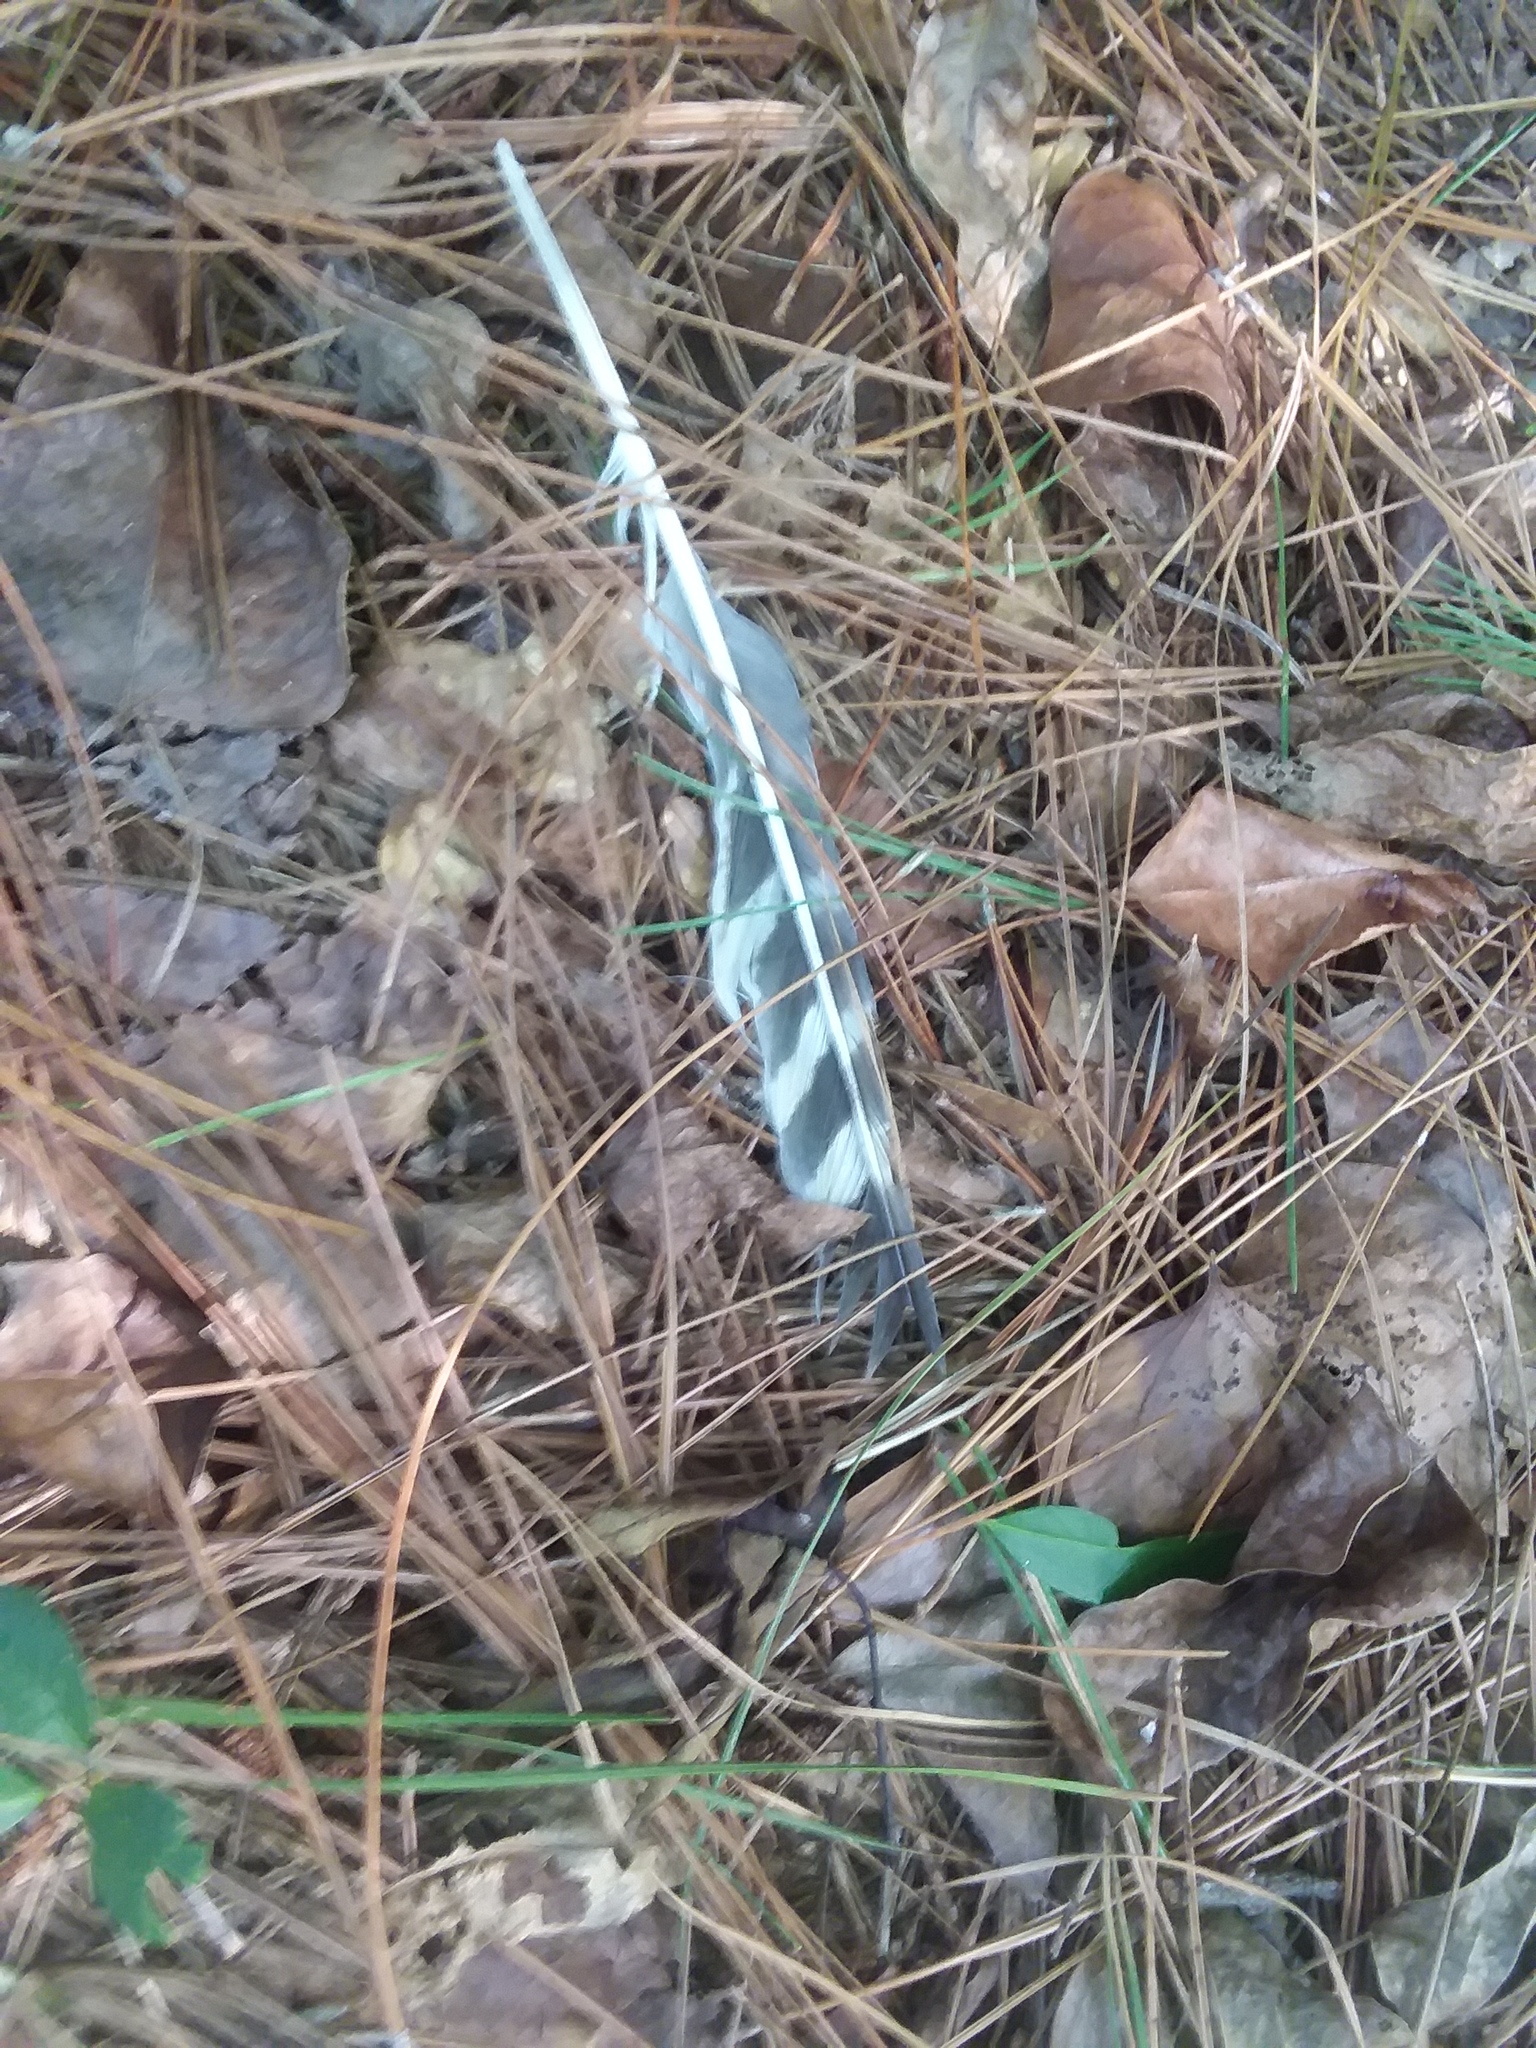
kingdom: Animalia
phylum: Chordata
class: Aves
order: Accipitriformes
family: Accipitridae
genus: Buteo
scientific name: Buteo lineatus
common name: Red-shouldered hawk
